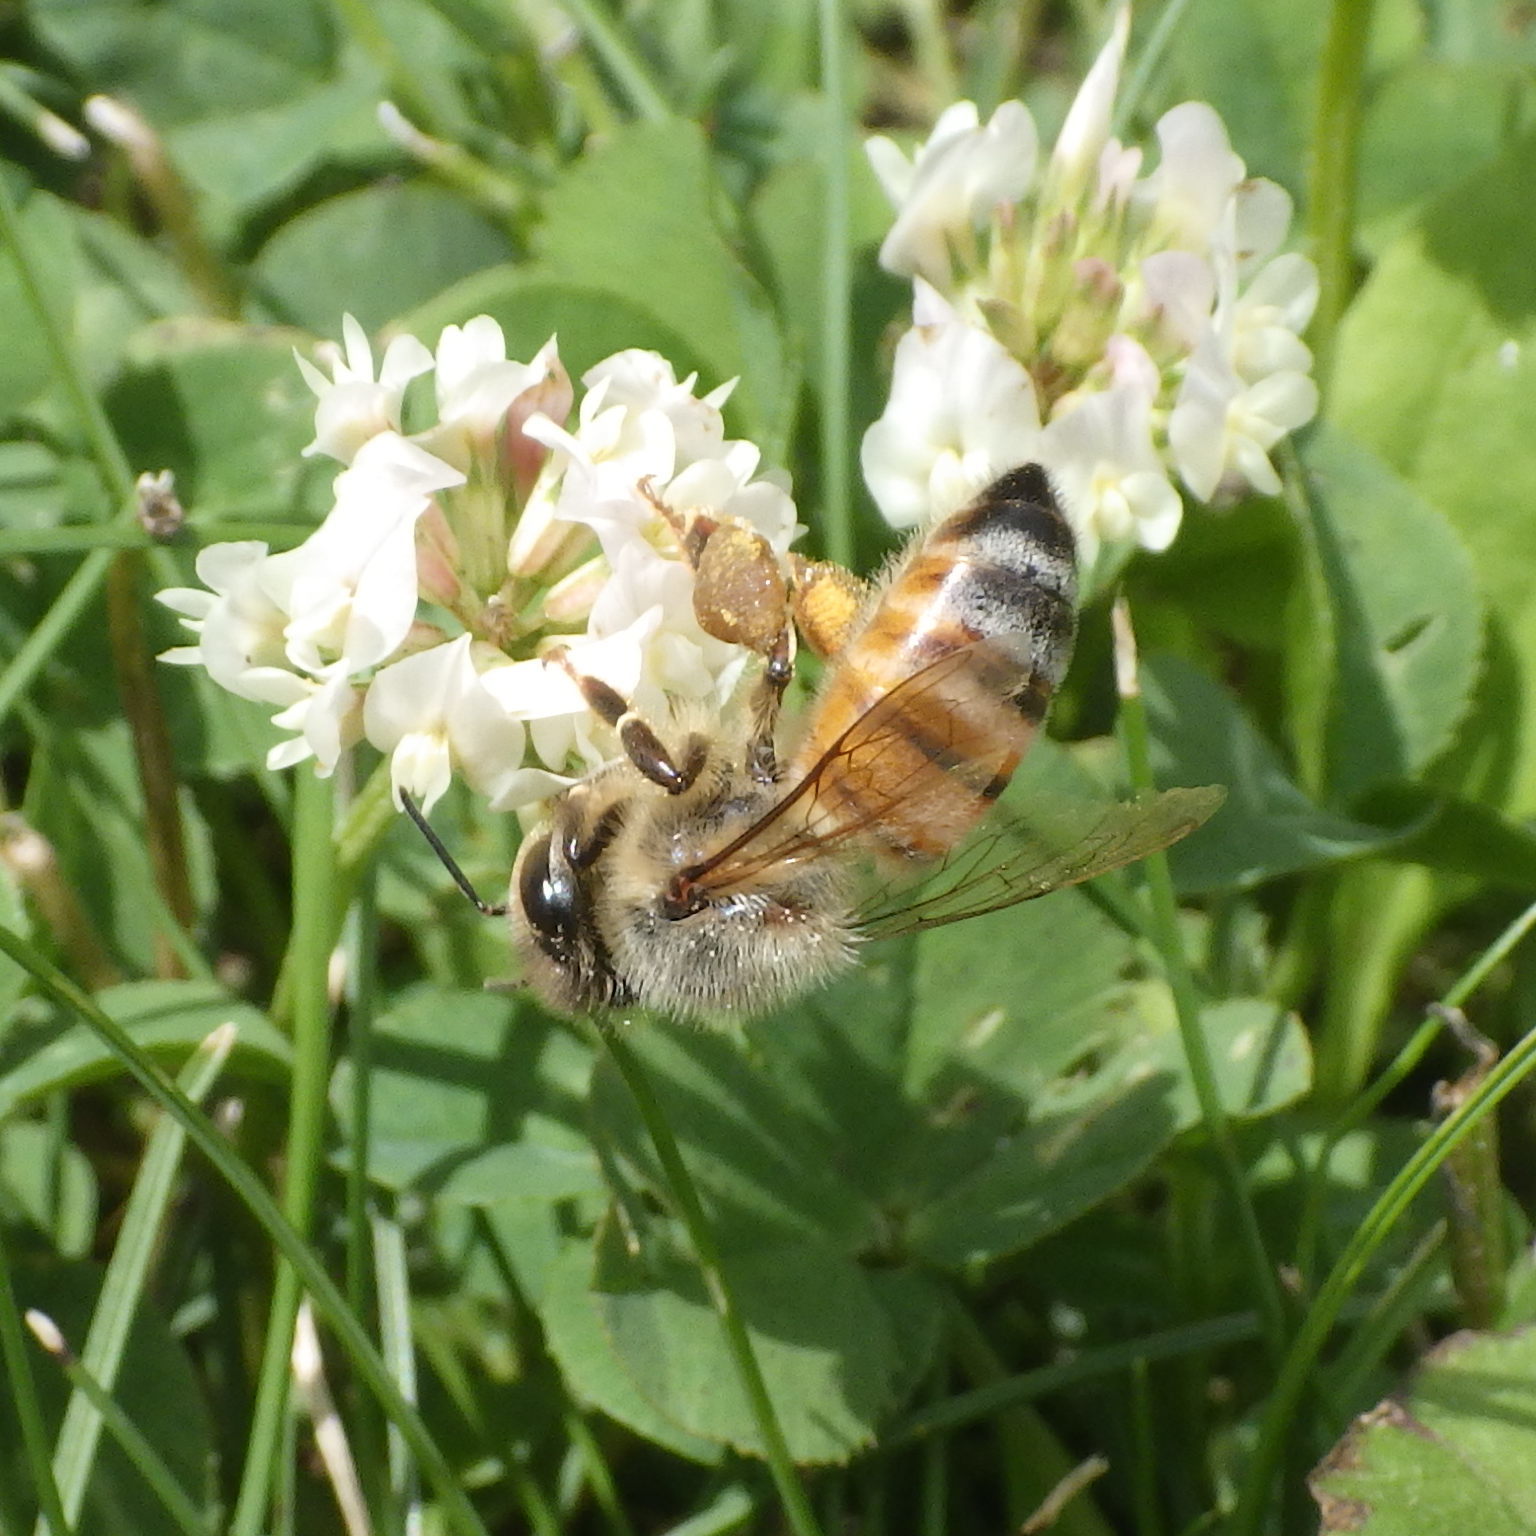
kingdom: Animalia
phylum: Arthropoda
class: Insecta
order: Hymenoptera
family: Apidae
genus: Apis
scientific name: Apis mellifera
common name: Honey bee
